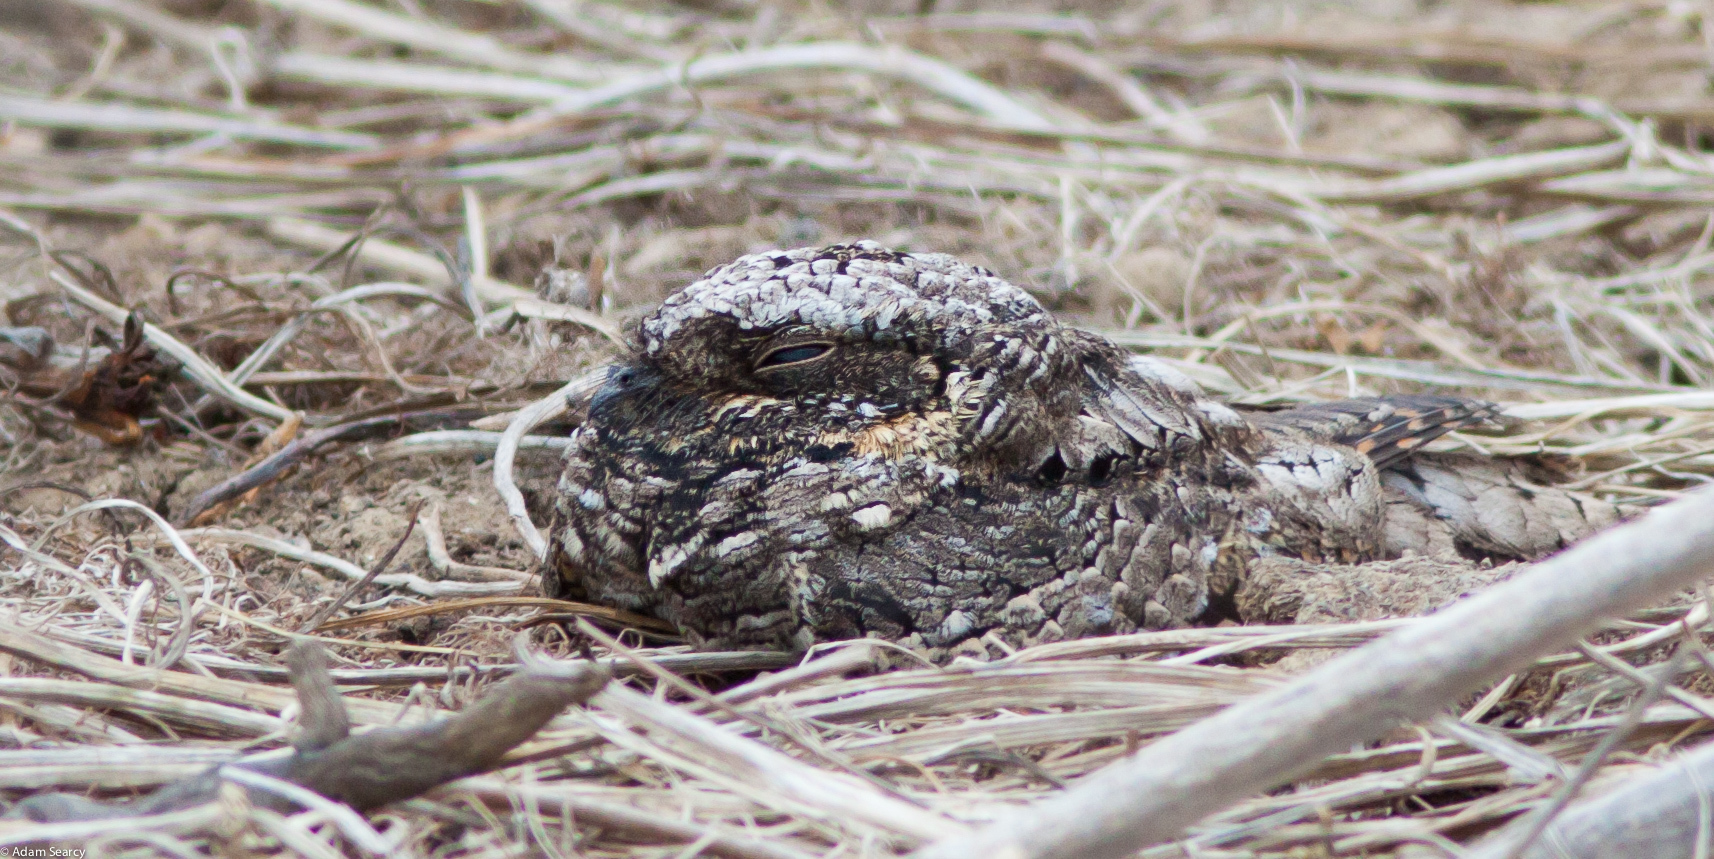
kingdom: Animalia
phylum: Chordata
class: Aves
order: Caprimulgiformes
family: Caprimulgidae
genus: Phalaenoptilus
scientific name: Phalaenoptilus nuttallii
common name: Common poorwill
